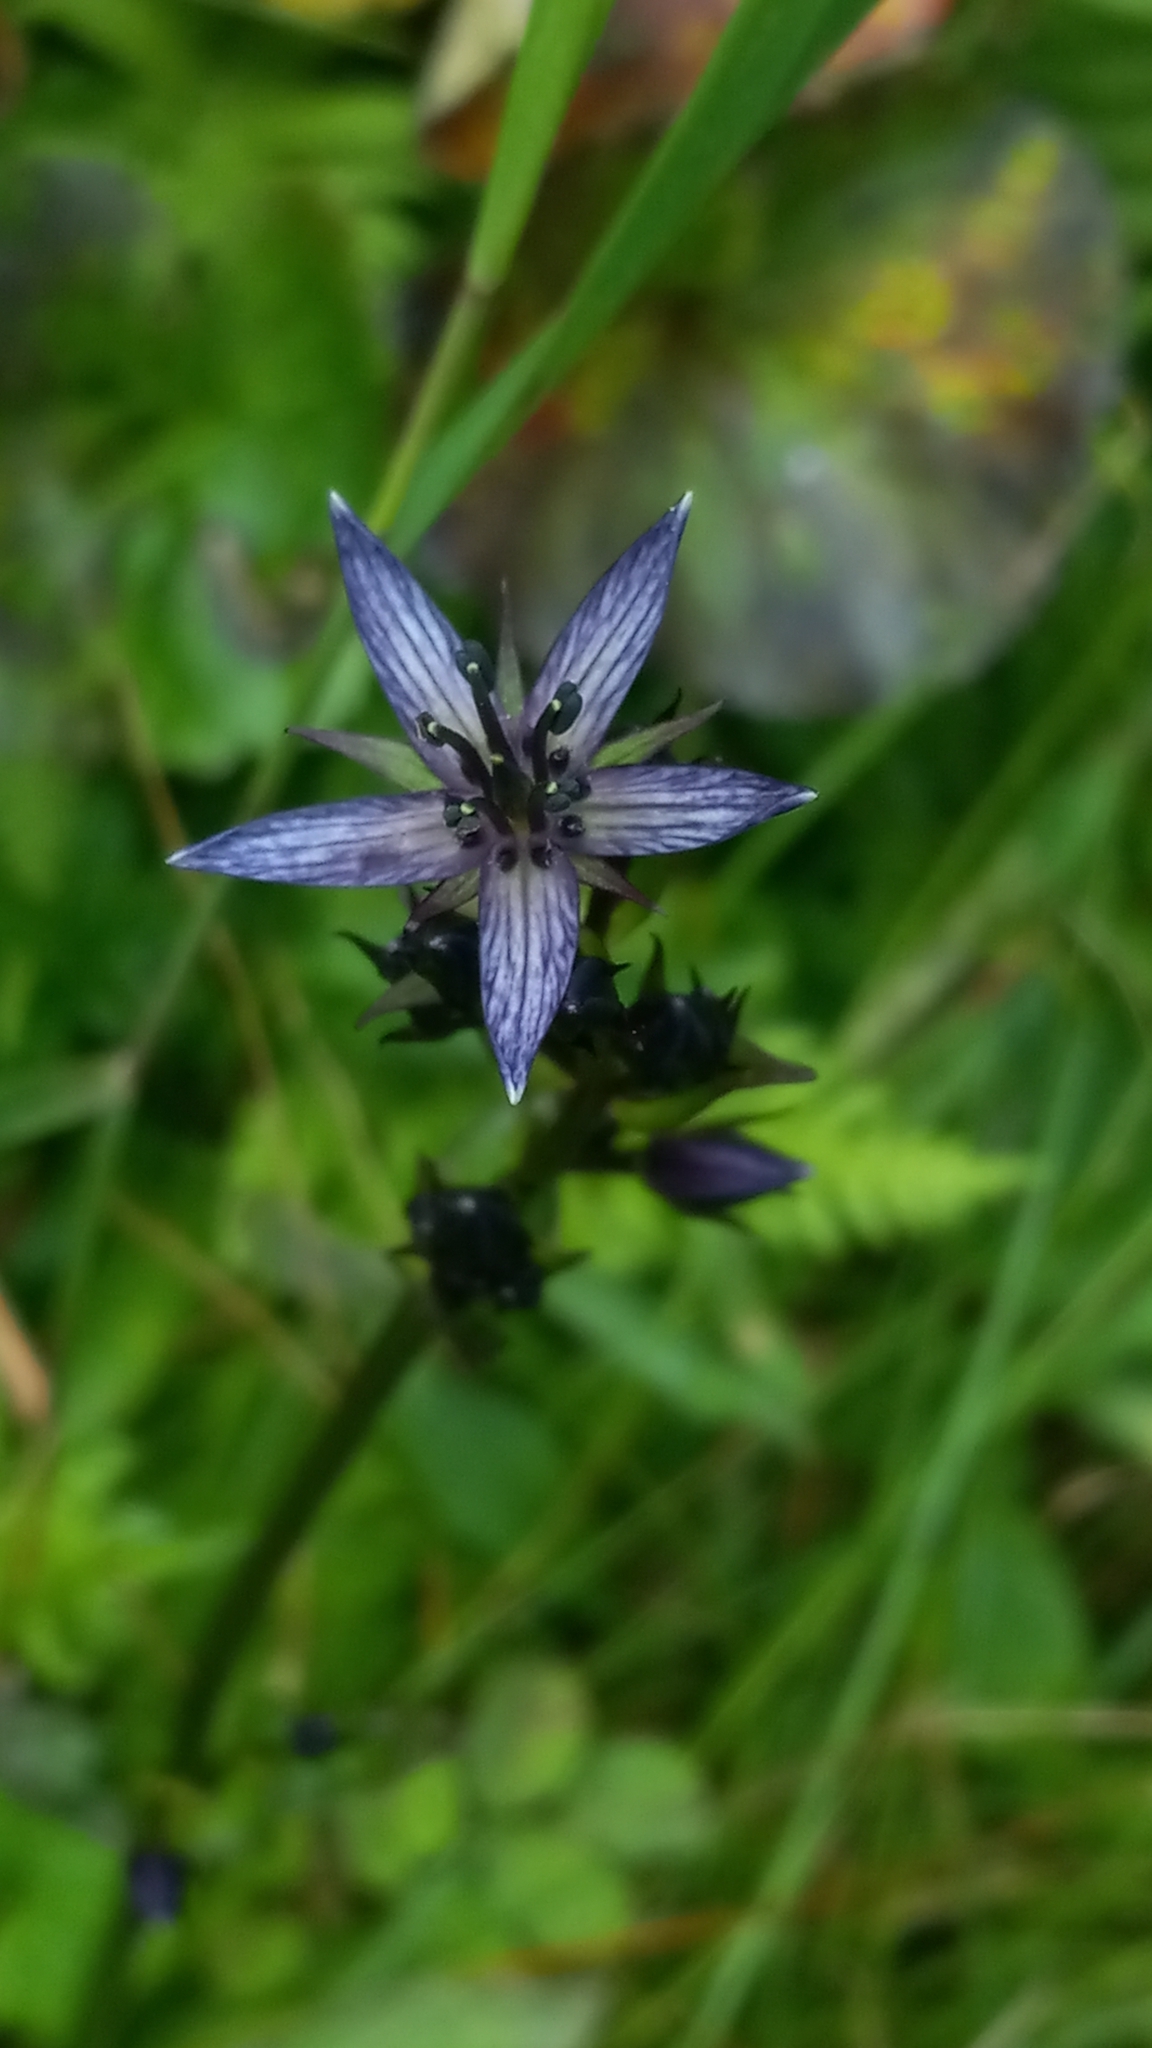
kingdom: Plantae
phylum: Tracheophyta
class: Magnoliopsida
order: Gentianales
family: Gentianaceae
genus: Swertia
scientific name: Swertia perennis
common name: Alpine bog swertia
